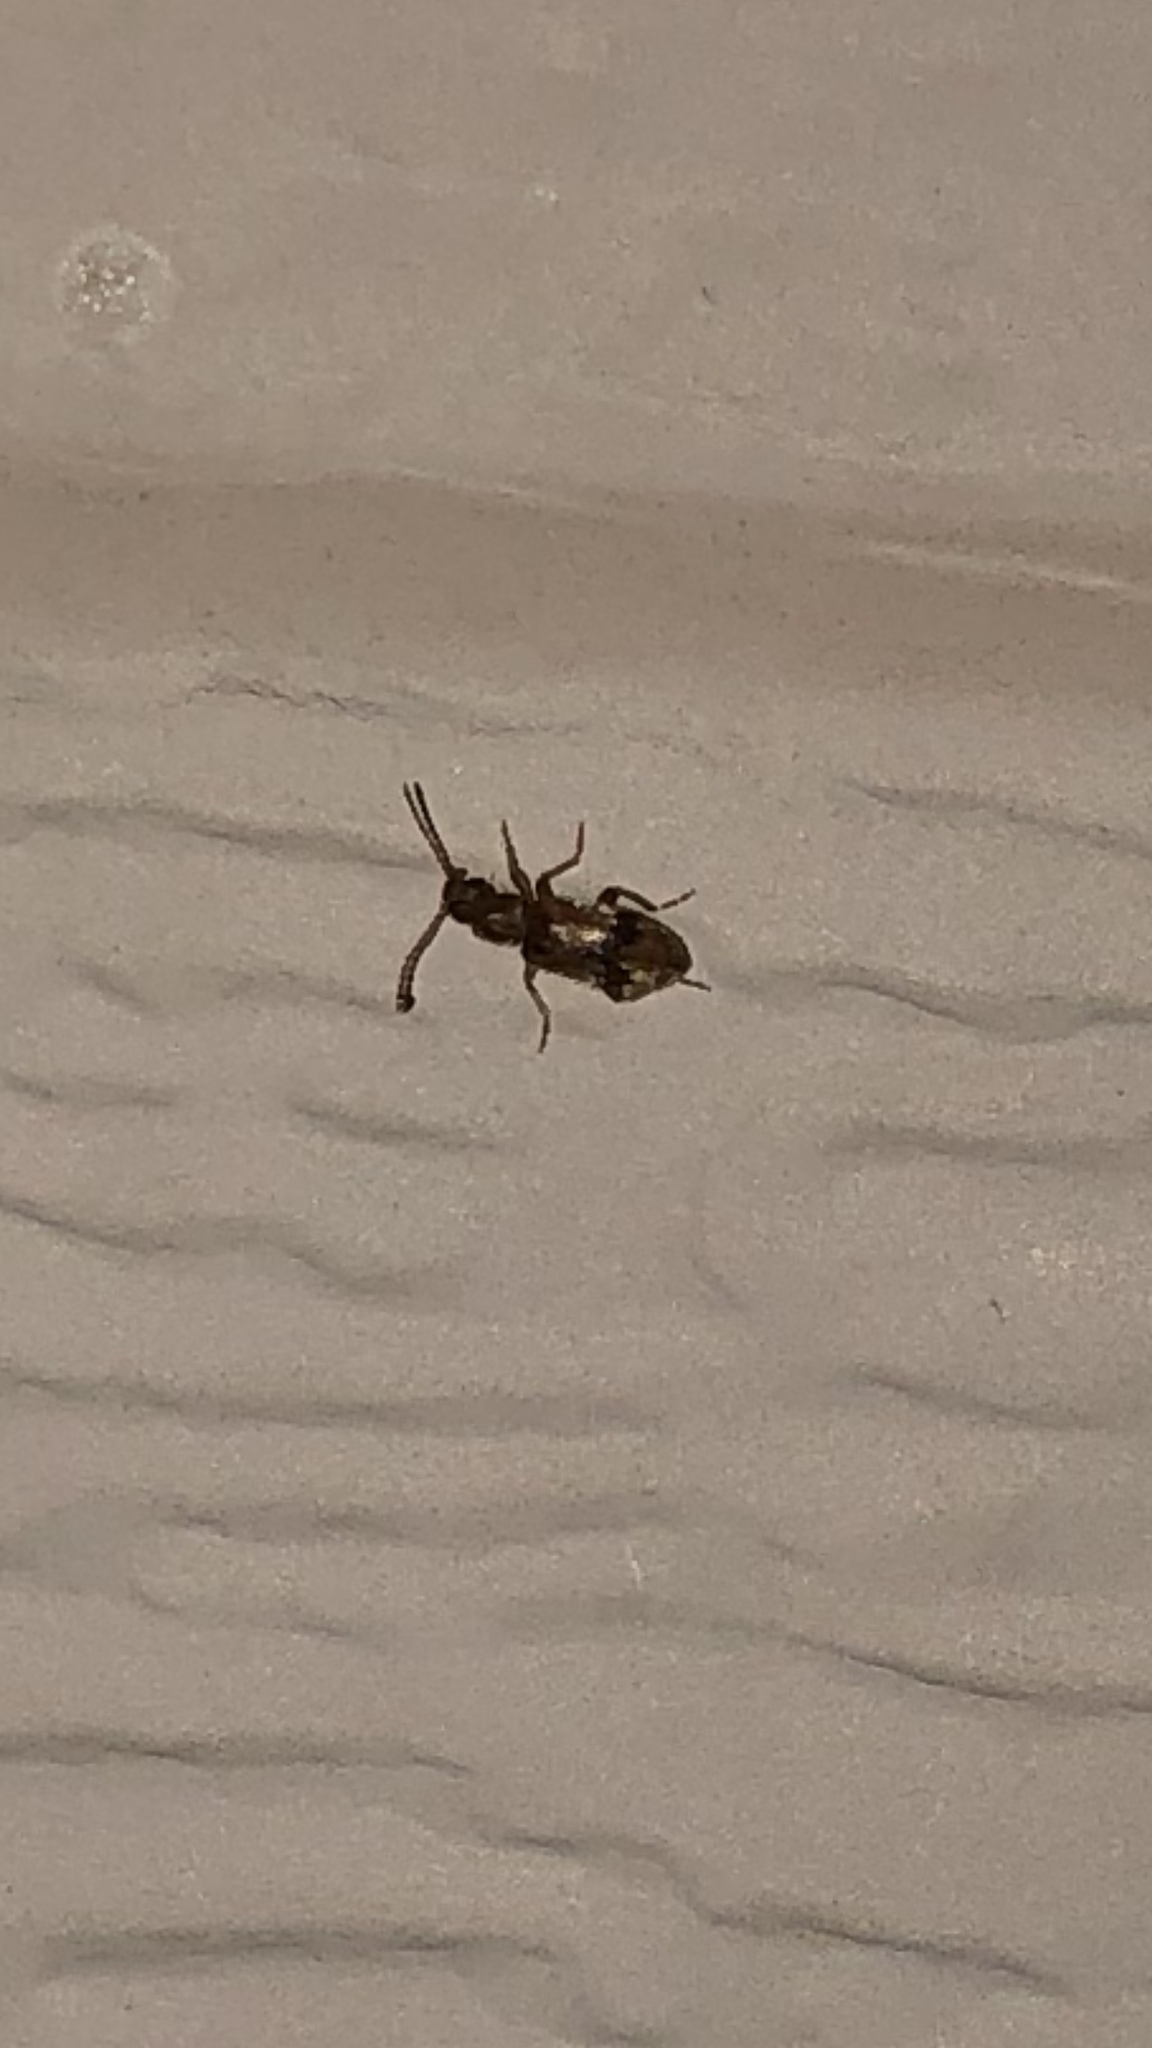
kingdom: Animalia
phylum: Arthropoda
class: Insecta
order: Coleoptera
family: Anthicidae
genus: Notoxus
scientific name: Notoxus
